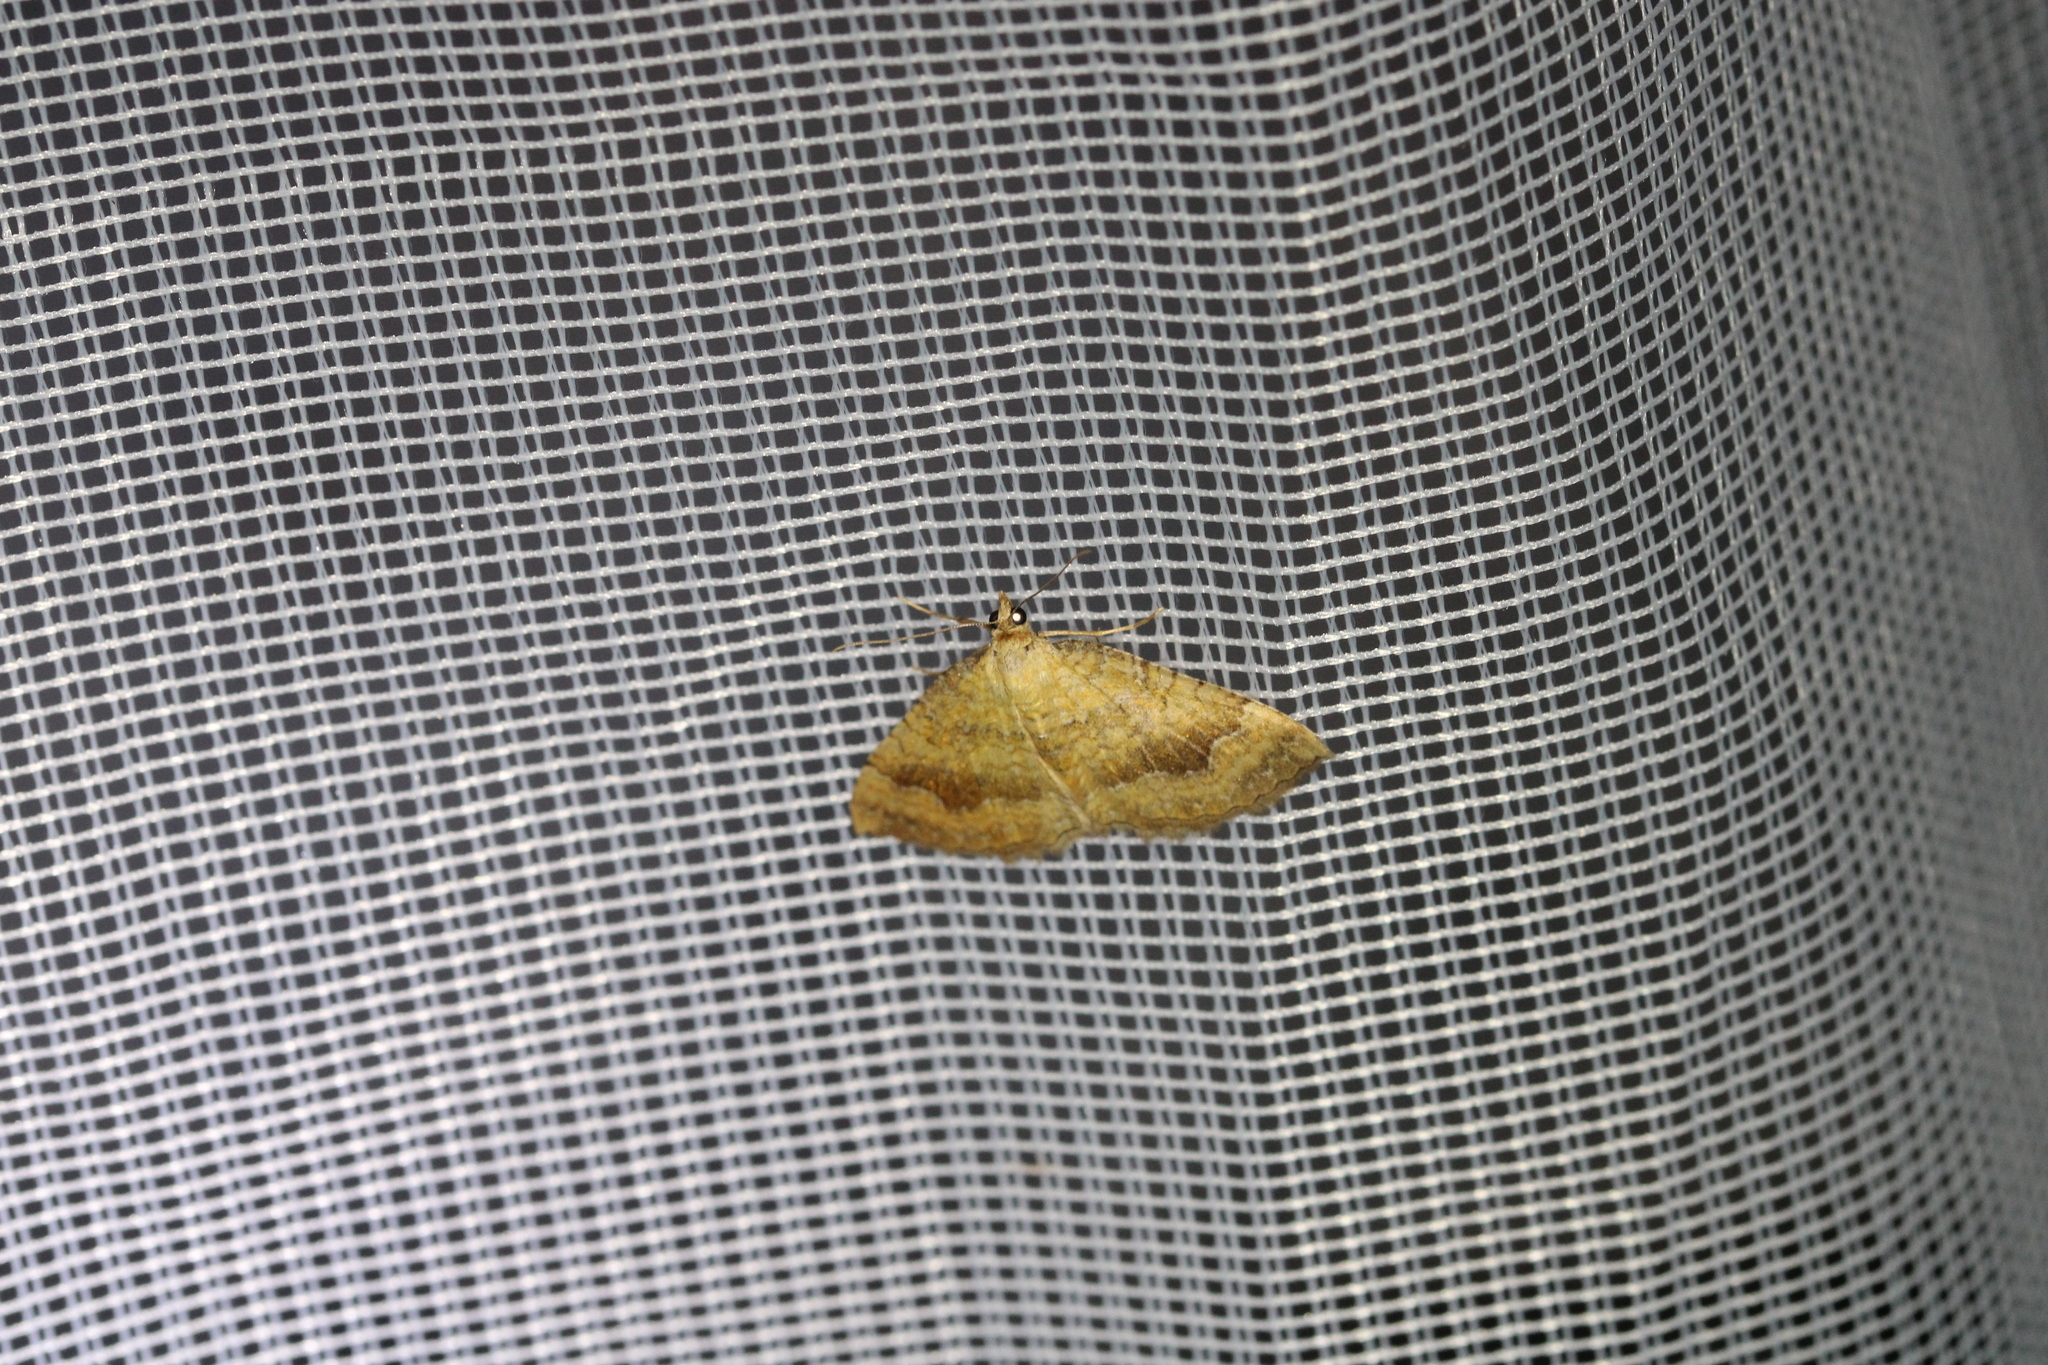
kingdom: Animalia
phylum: Arthropoda
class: Insecta
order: Lepidoptera
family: Geometridae
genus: Camptogramma
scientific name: Camptogramma bilineata
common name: Yellow shell
